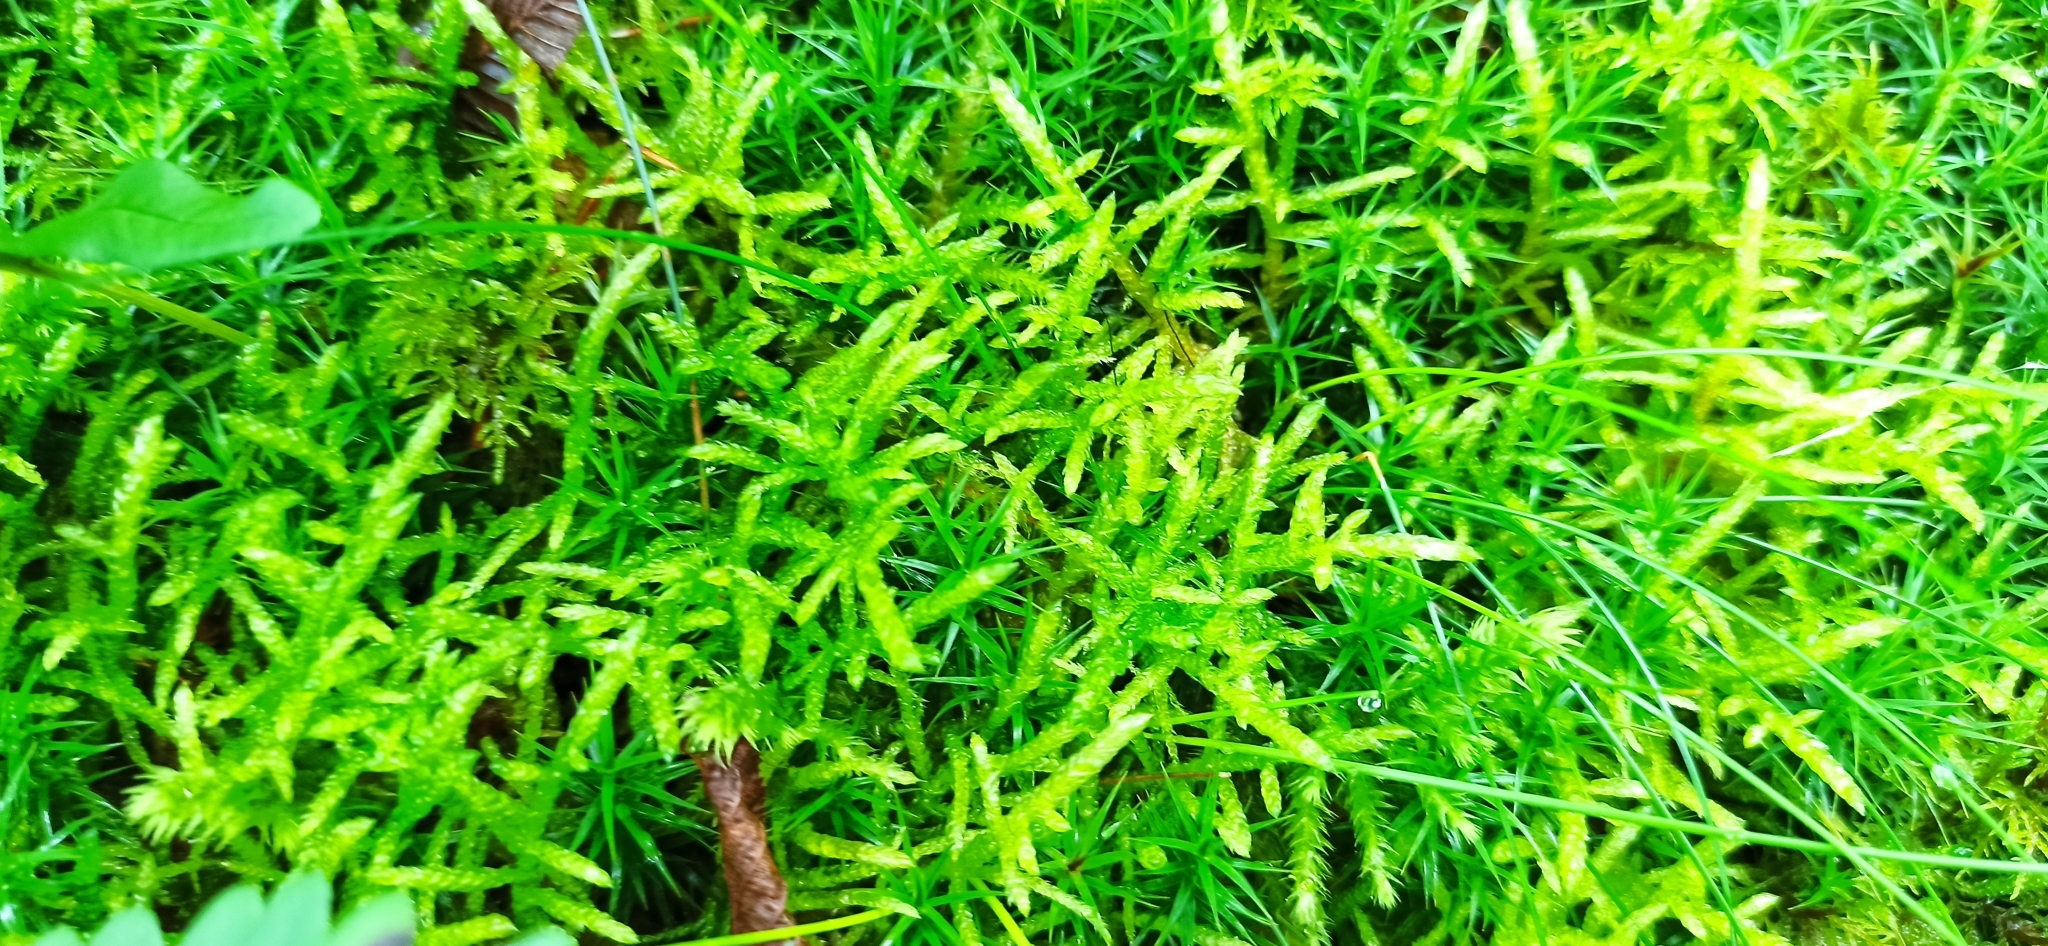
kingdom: Plantae
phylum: Bryophyta
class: Bryopsida
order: Hypnales
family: Brachytheciaceae
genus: Pseudoscleropodium
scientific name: Pseudoscleropodium purum
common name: Neat feather-moss
